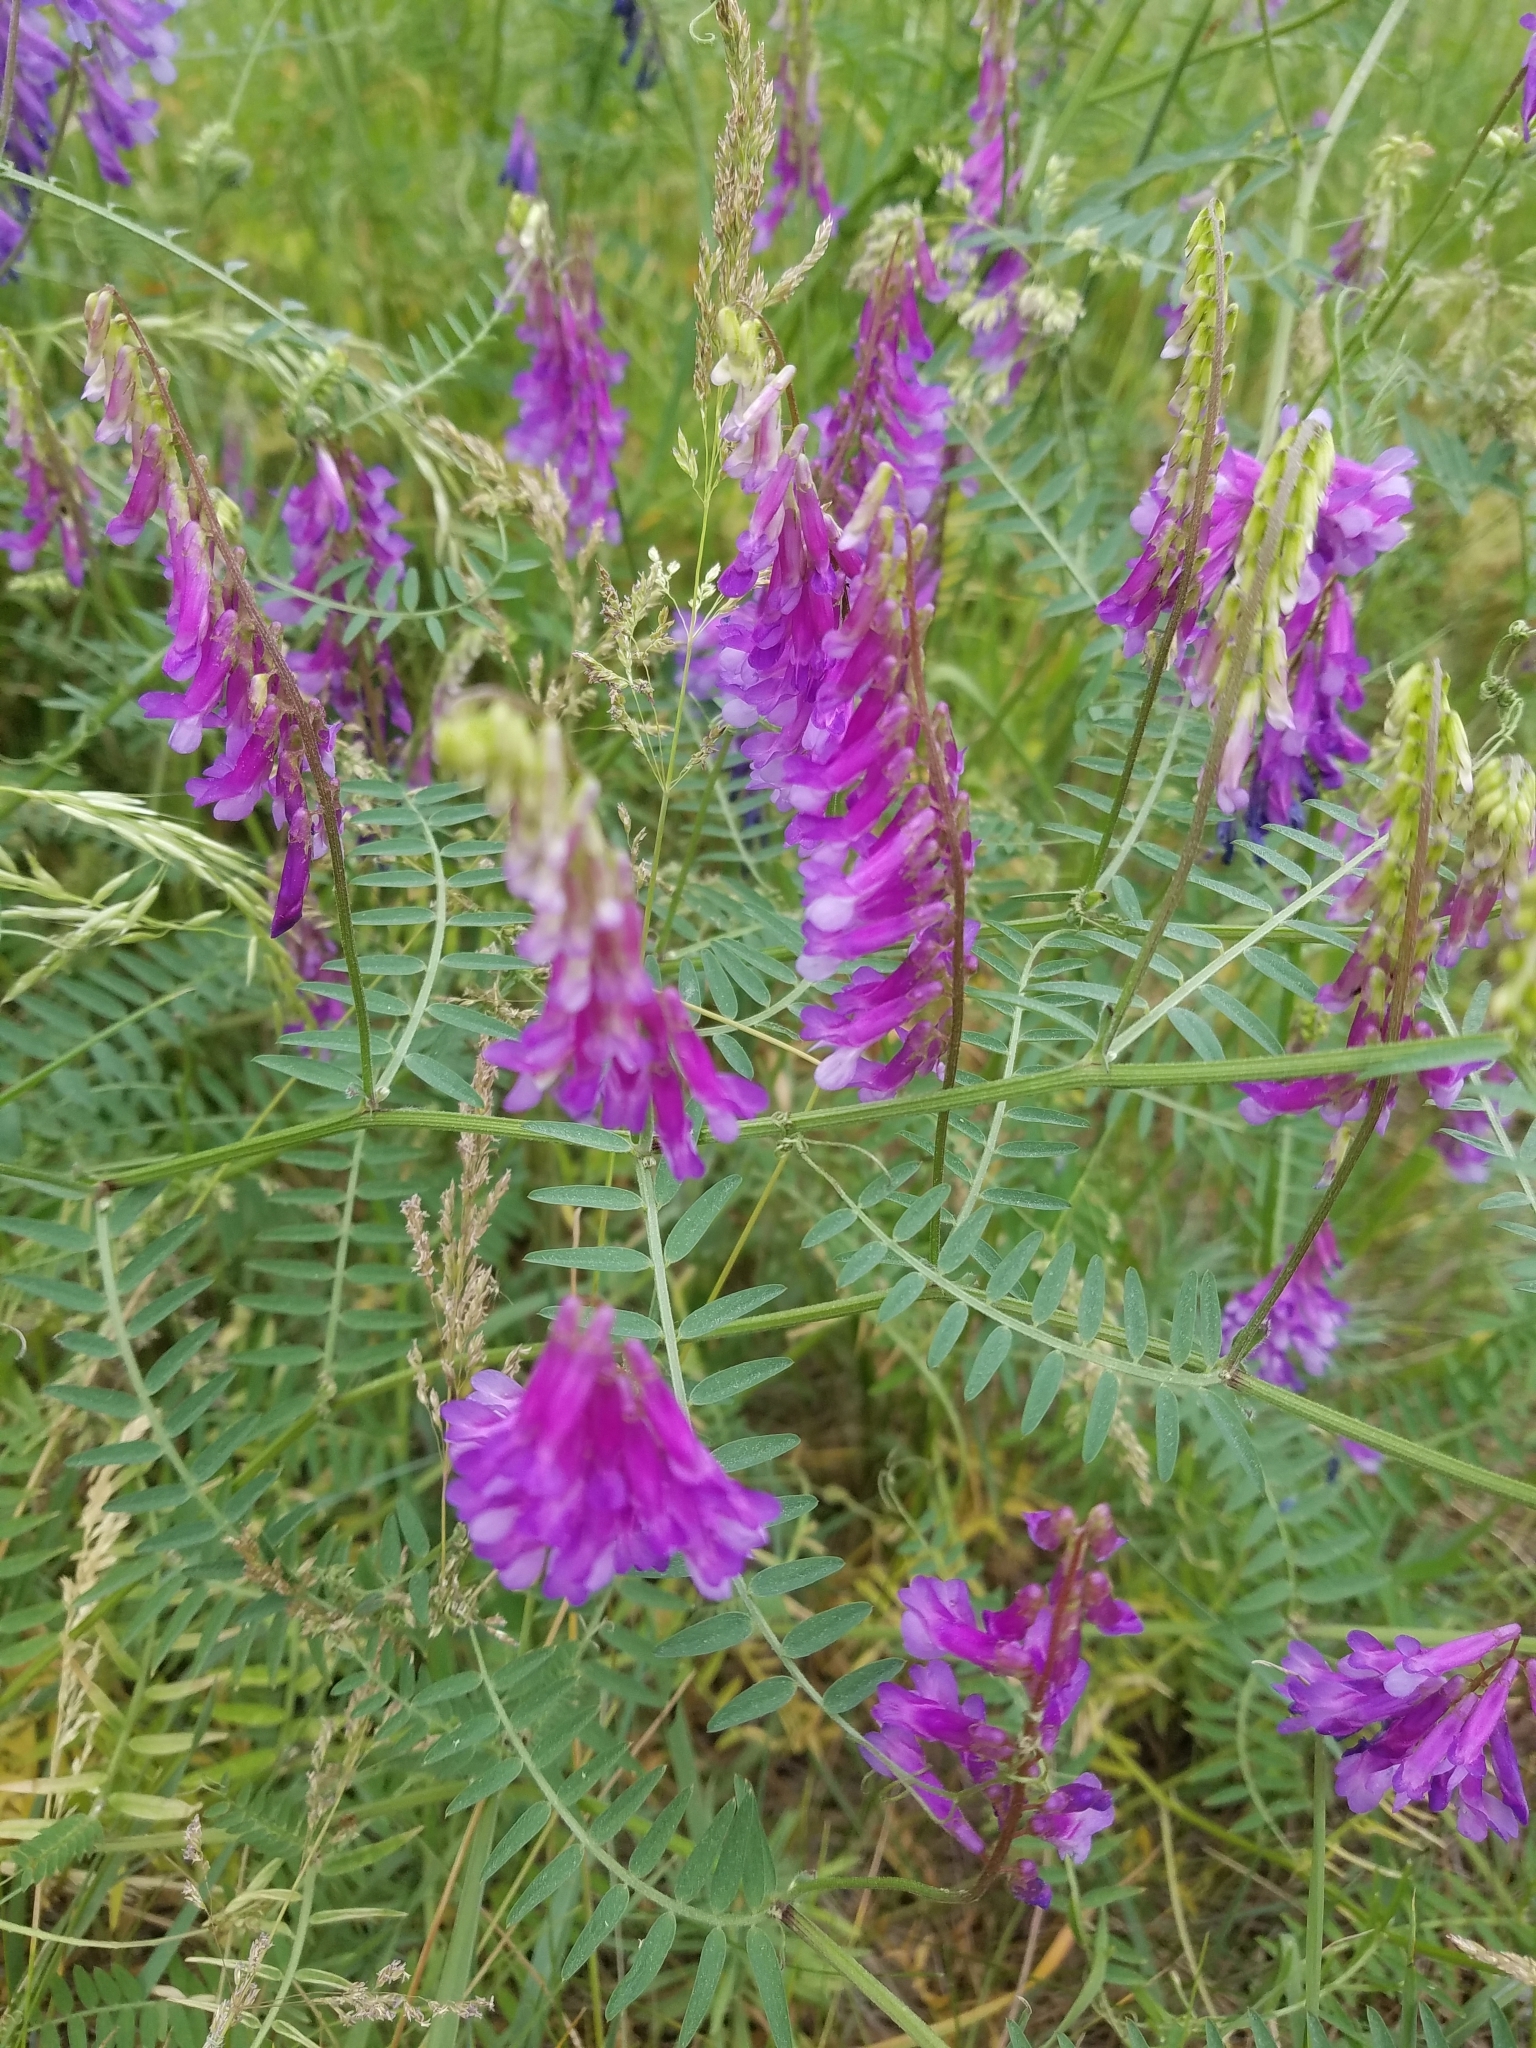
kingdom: Plantae
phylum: Tracheophyta
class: Magnoliopsida
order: Fabales
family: Fabaceae
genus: Vicia
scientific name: Vicia villosa
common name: Fodder vetch
